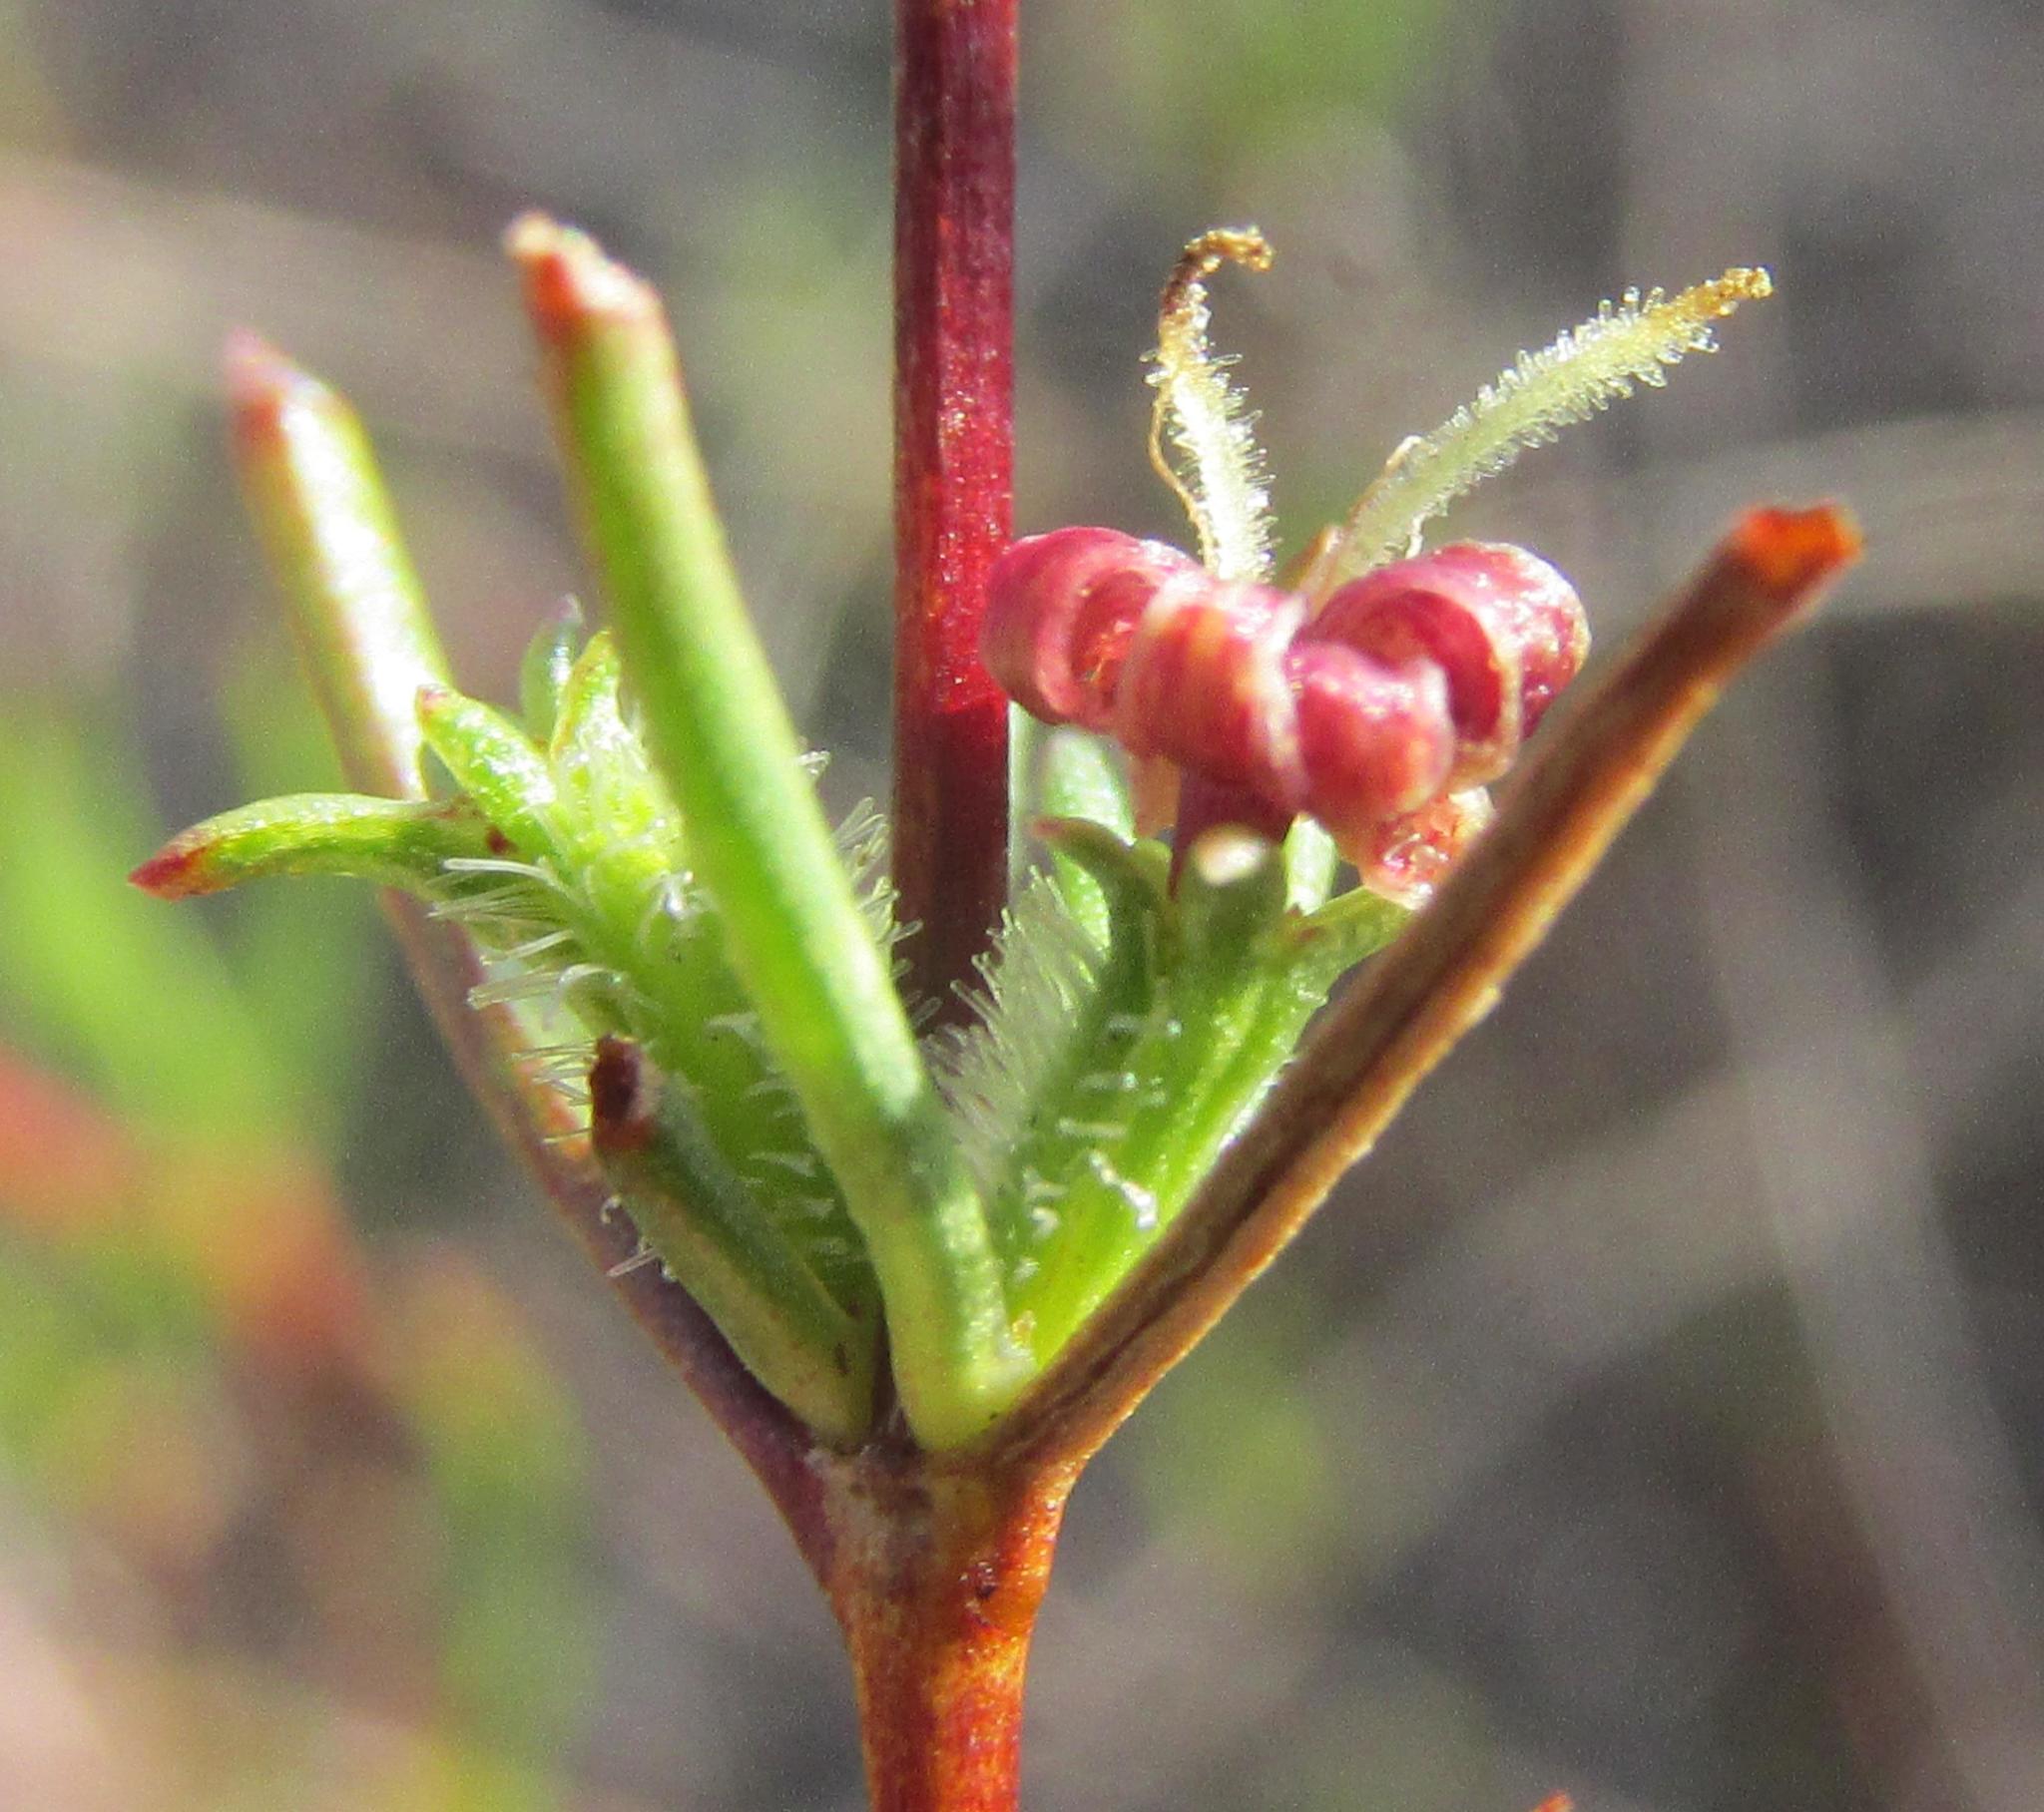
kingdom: Plantae
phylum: Tracheophyta
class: Magnoliopsida
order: Gentianales
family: Rubiaceae
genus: Anthospermum
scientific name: Anthospermum bicorne
